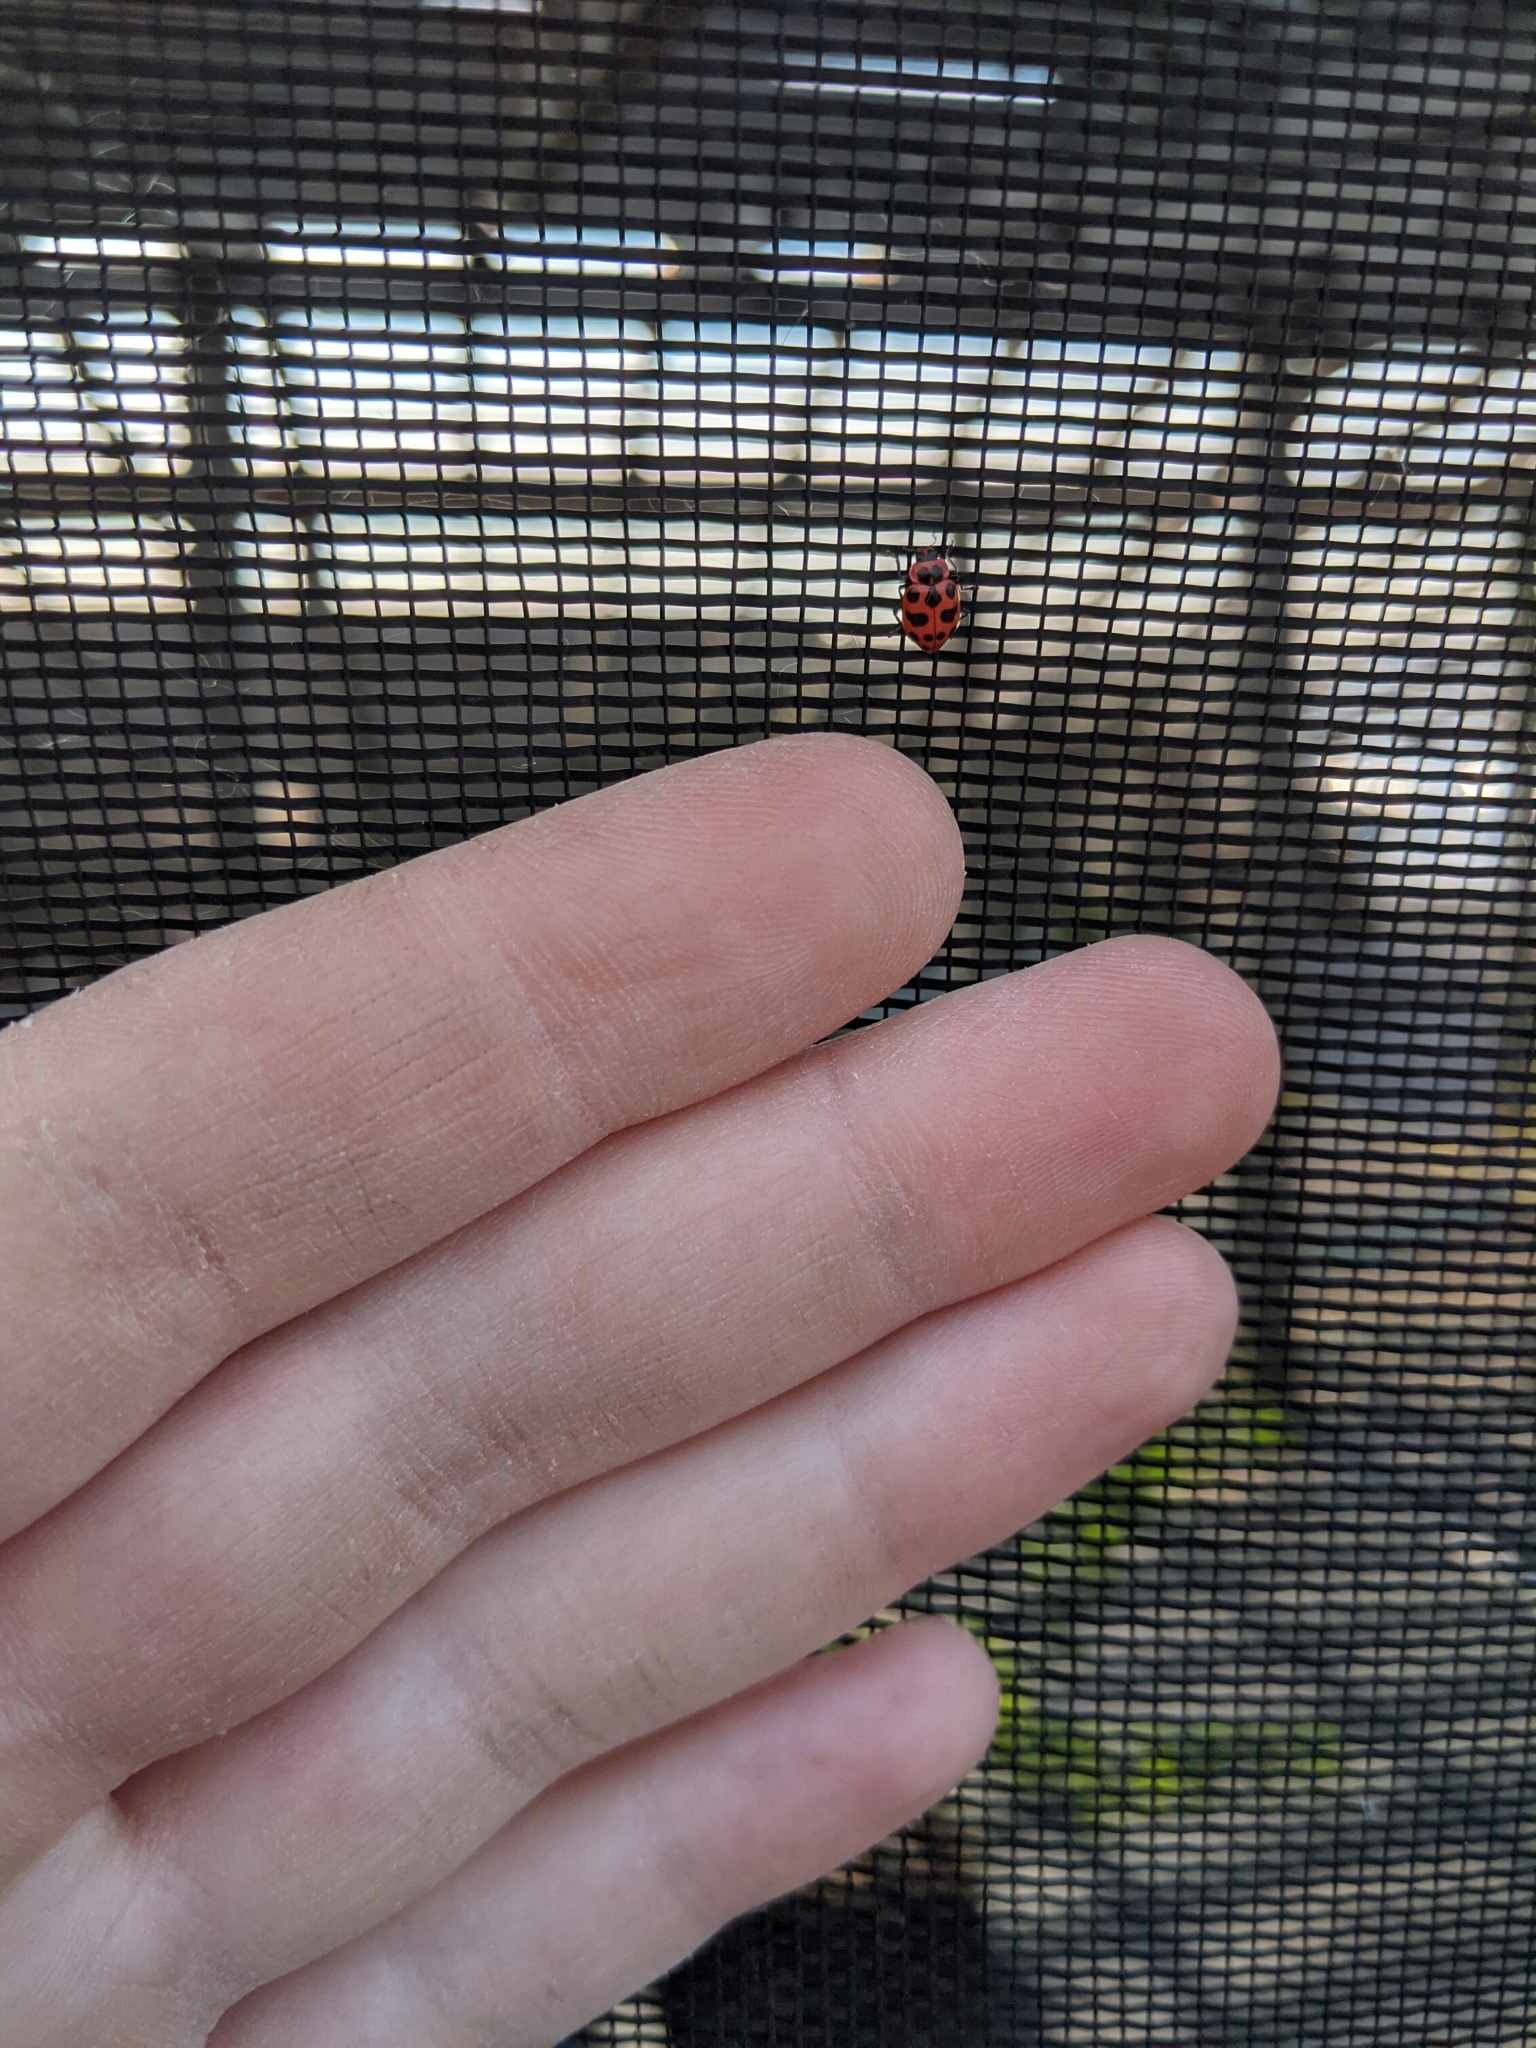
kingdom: Animalia
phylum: Arthropoda
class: Insecta
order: Coleoptera
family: Coccinellidae
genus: Coleomegilla
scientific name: Coleomegilla maculata
